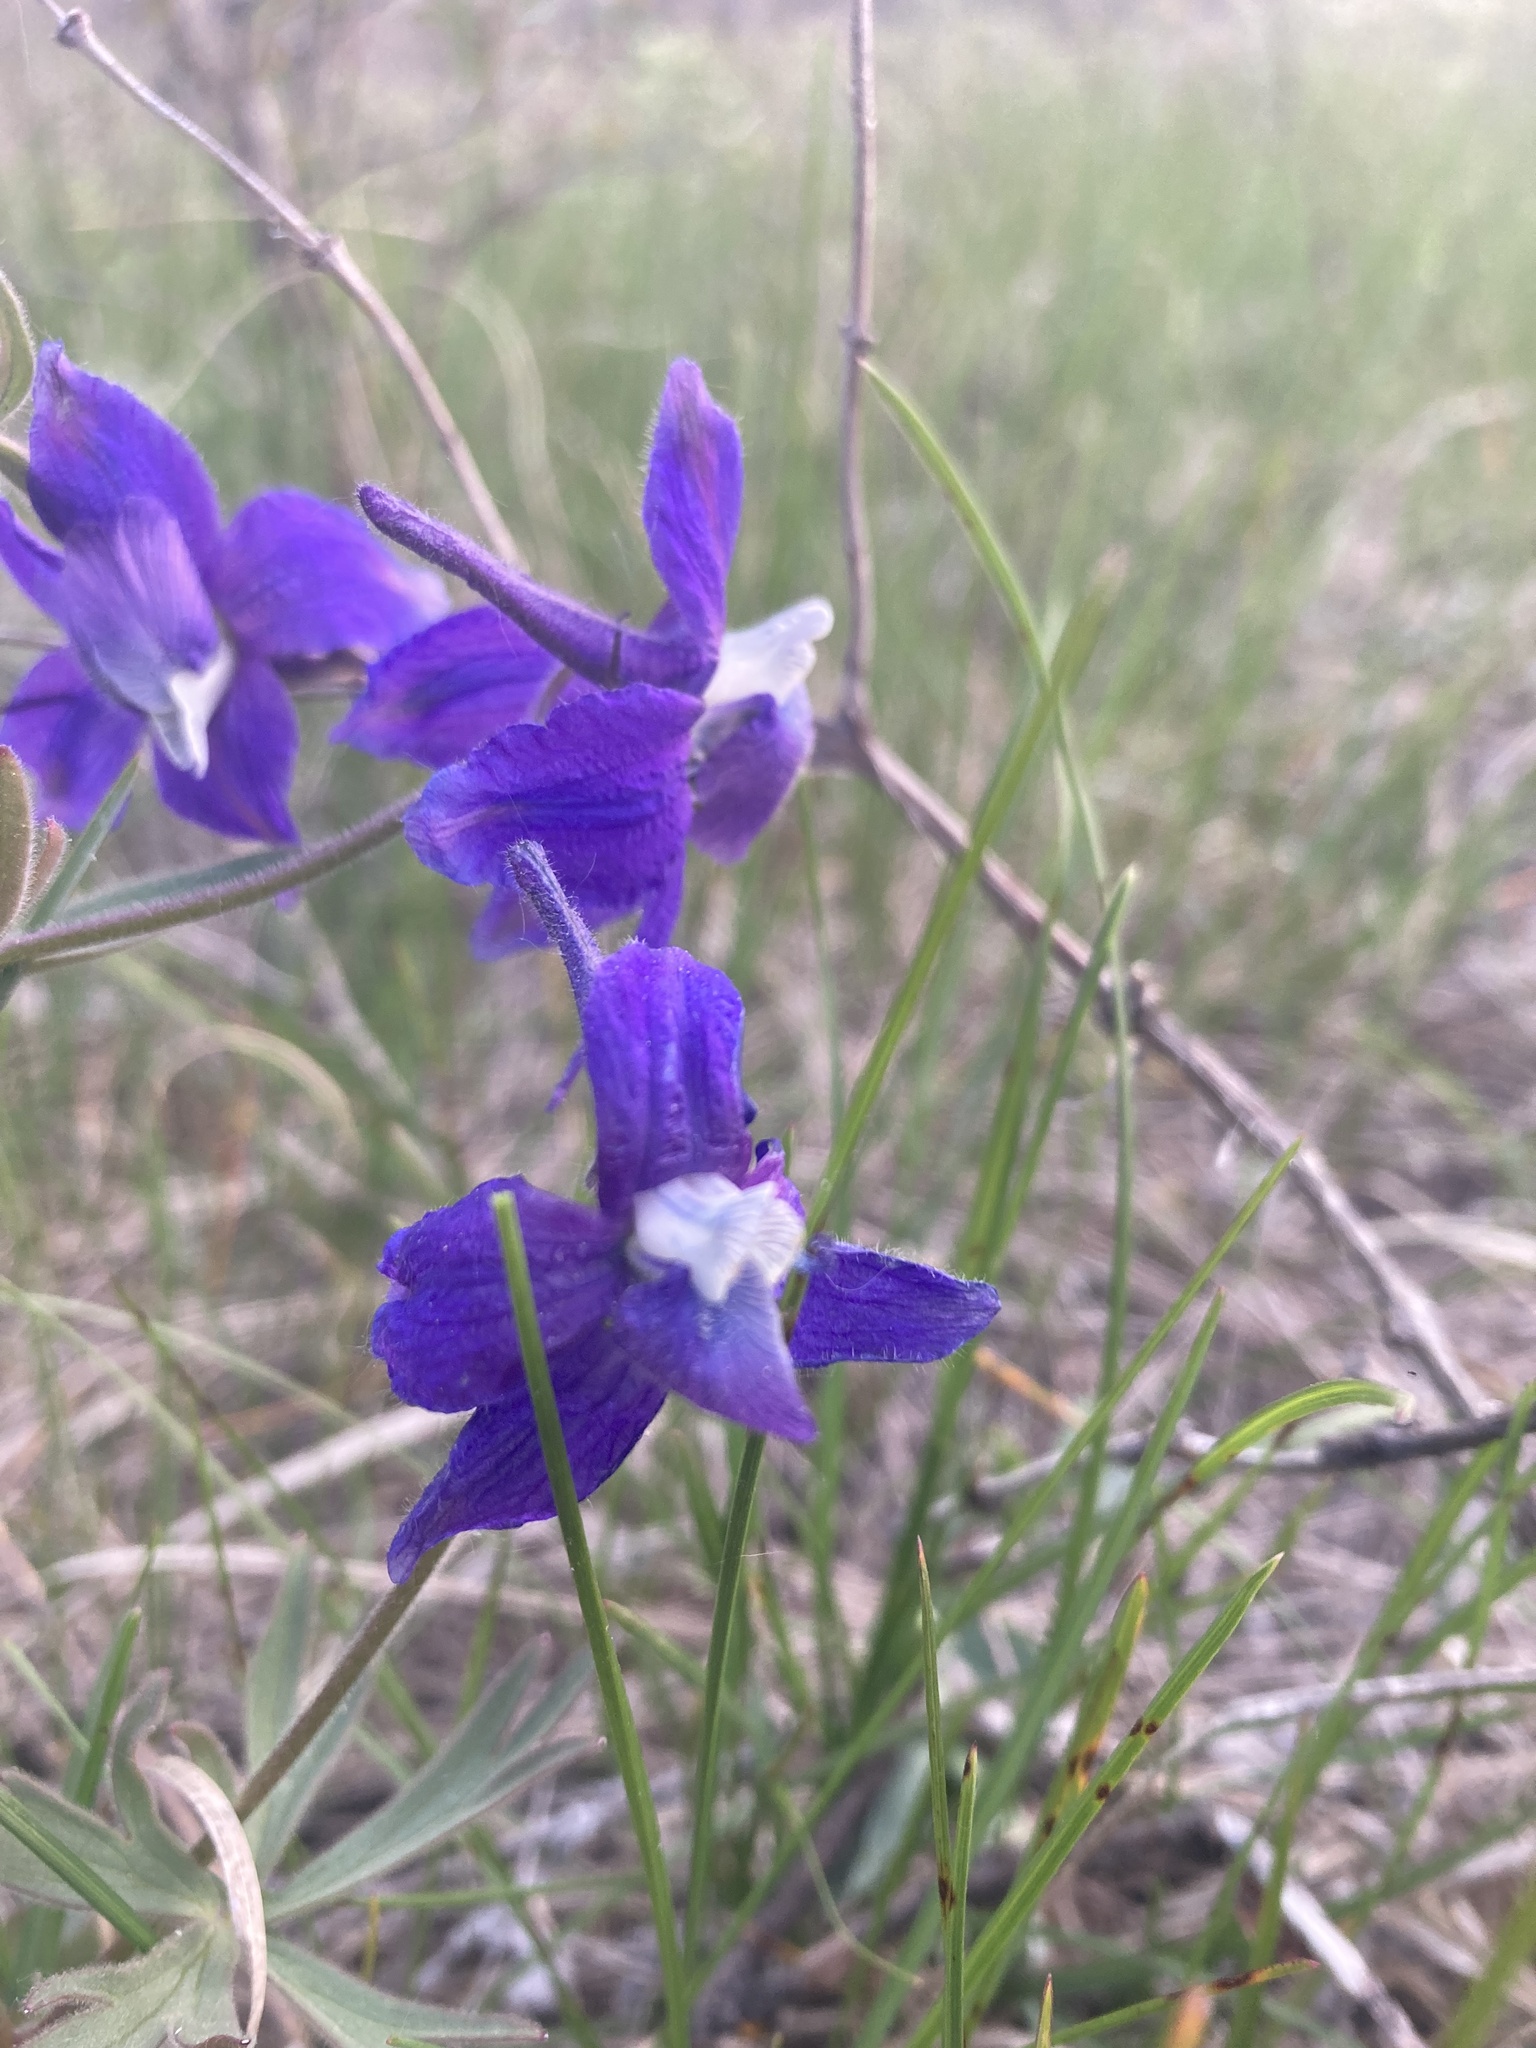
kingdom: Plantae
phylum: Tracheophyta
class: Magnoliopsida
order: Ranunculales
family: Ranunculaceae
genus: Delphinium
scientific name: Delphinium bicolor
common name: Low larkspur
